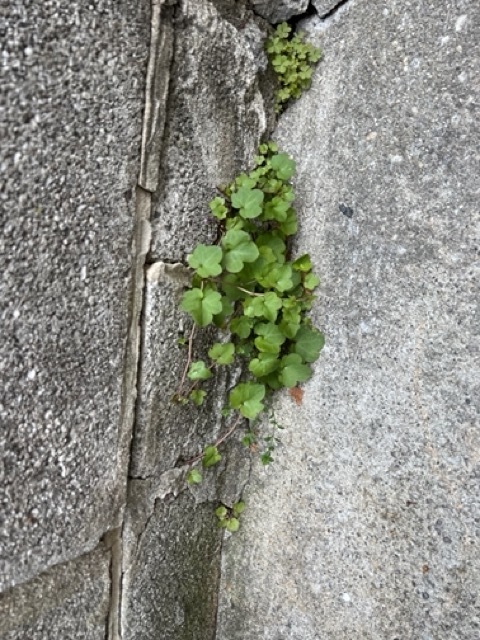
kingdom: Plantae
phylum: Tracheophyta
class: Magnoliopsida
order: Lamiales
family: Plantaginaceae
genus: Cymbalaria
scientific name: Cymbalaria muralis
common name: Ivy-leaved toadflax
